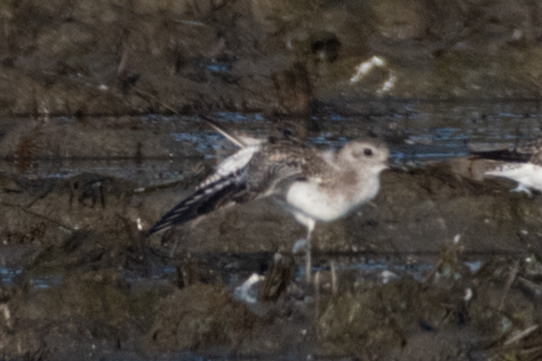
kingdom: Animalia
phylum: Chordata
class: Aves
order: Charadriiformes
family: Charadriidae
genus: Pluvialis
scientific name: Pluvialis squatarola
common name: Grey plover
